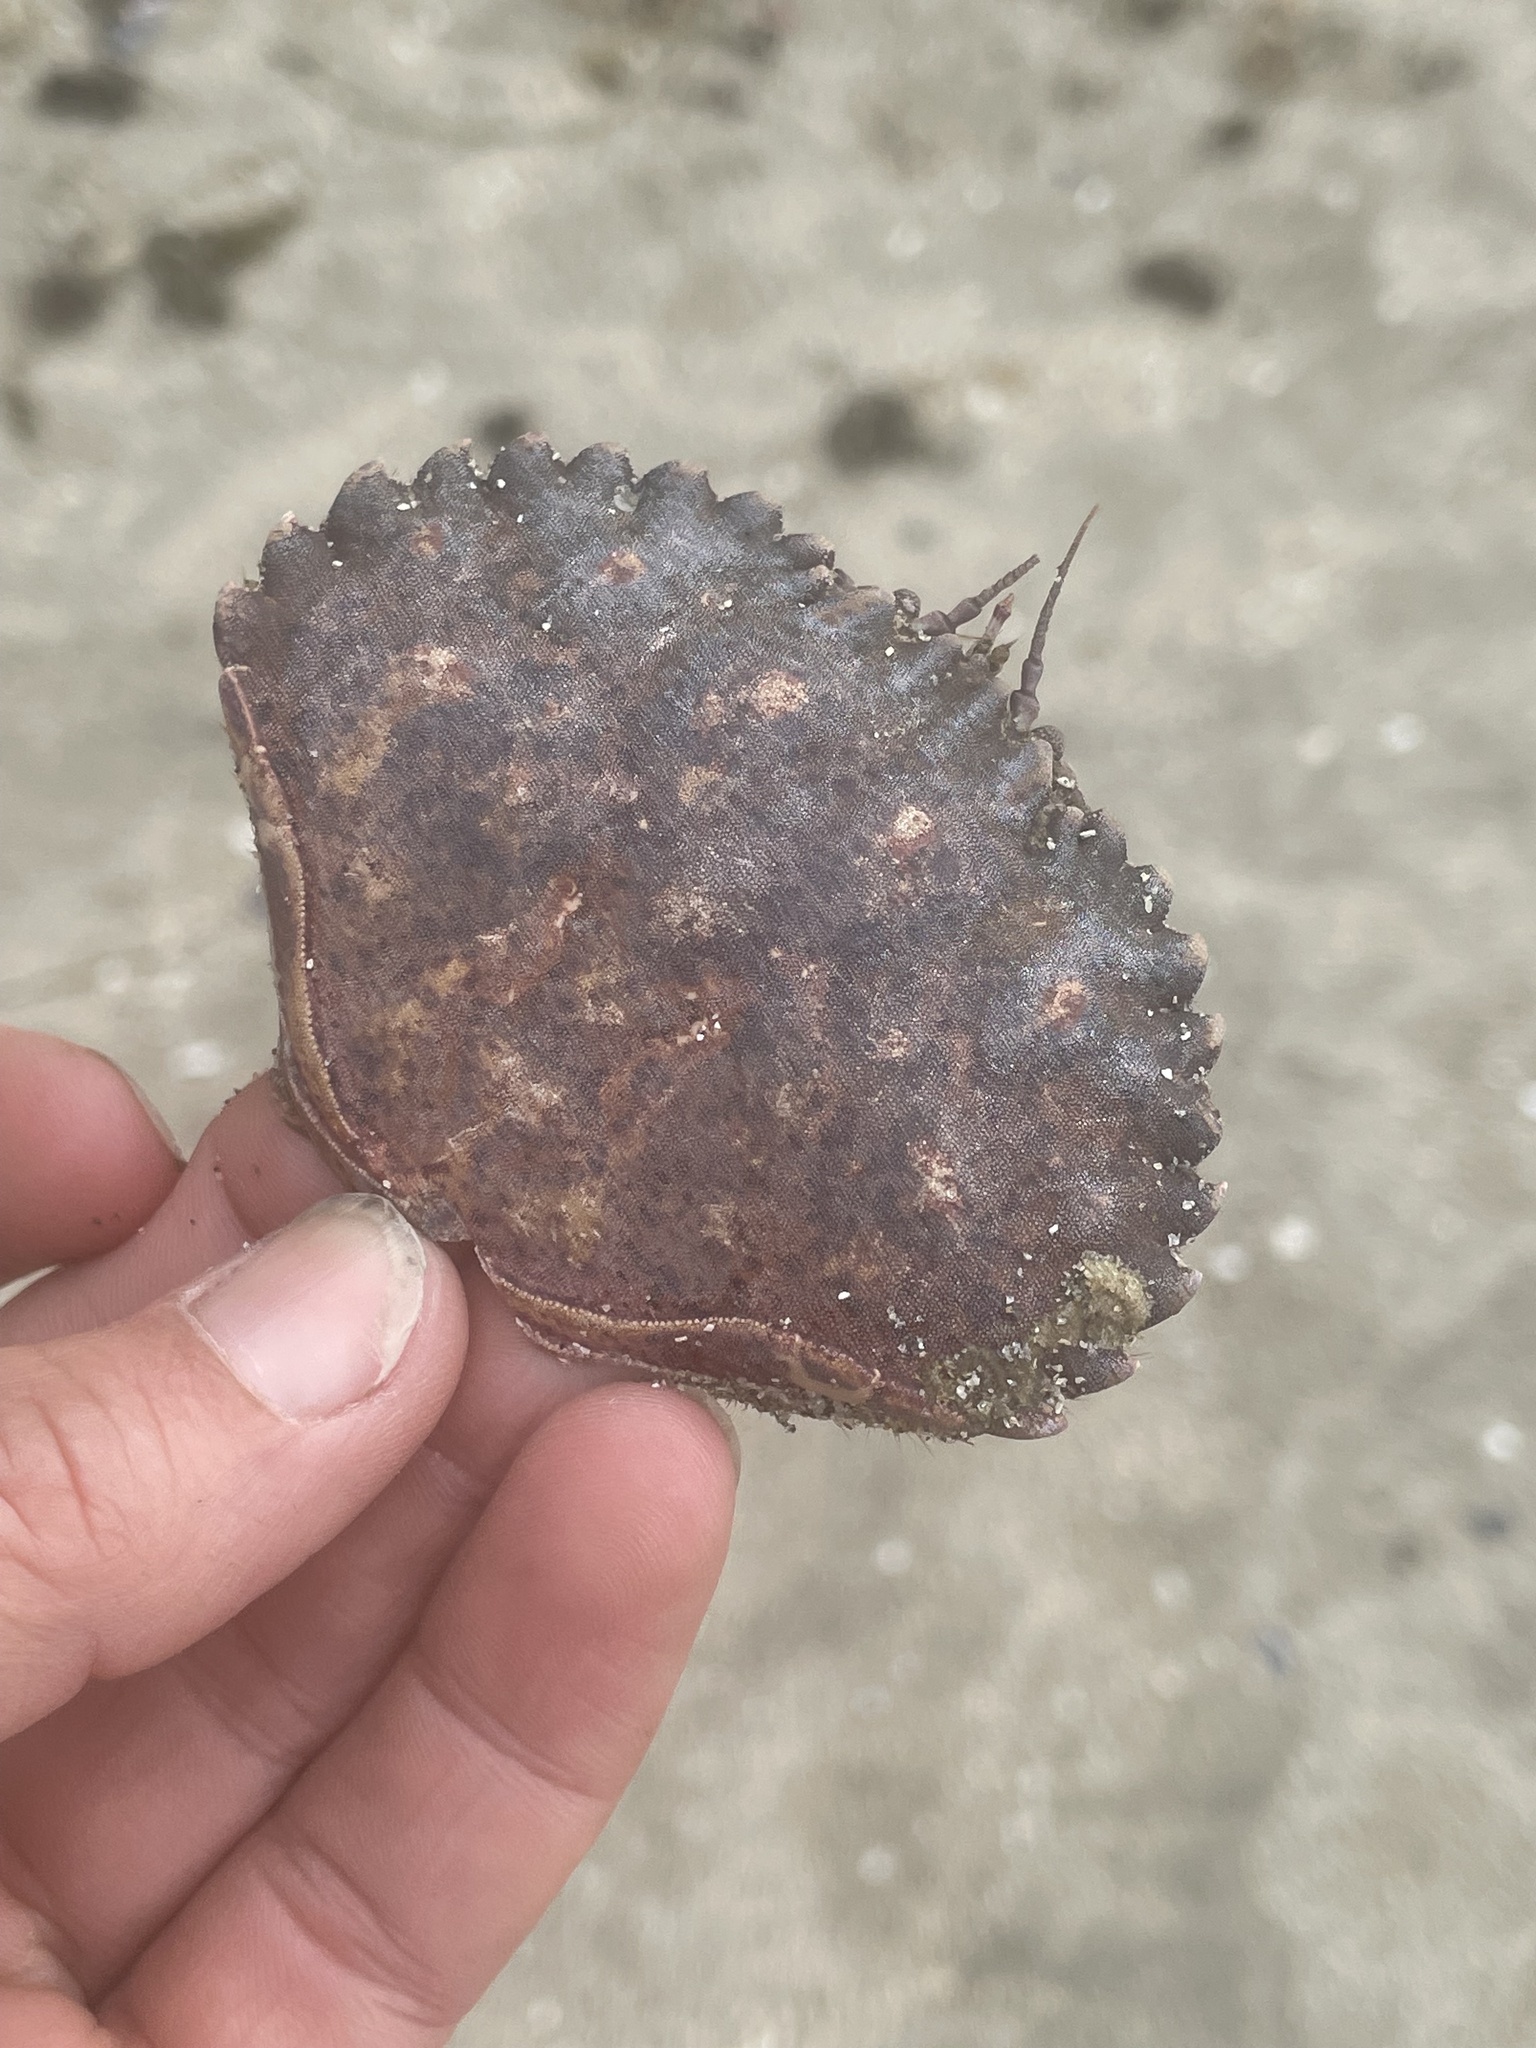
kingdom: Animalia
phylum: Arthropoda
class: Malacostraca
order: Decapoda
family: Cancridae
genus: Romaleon
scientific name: Romaleon antennarium
